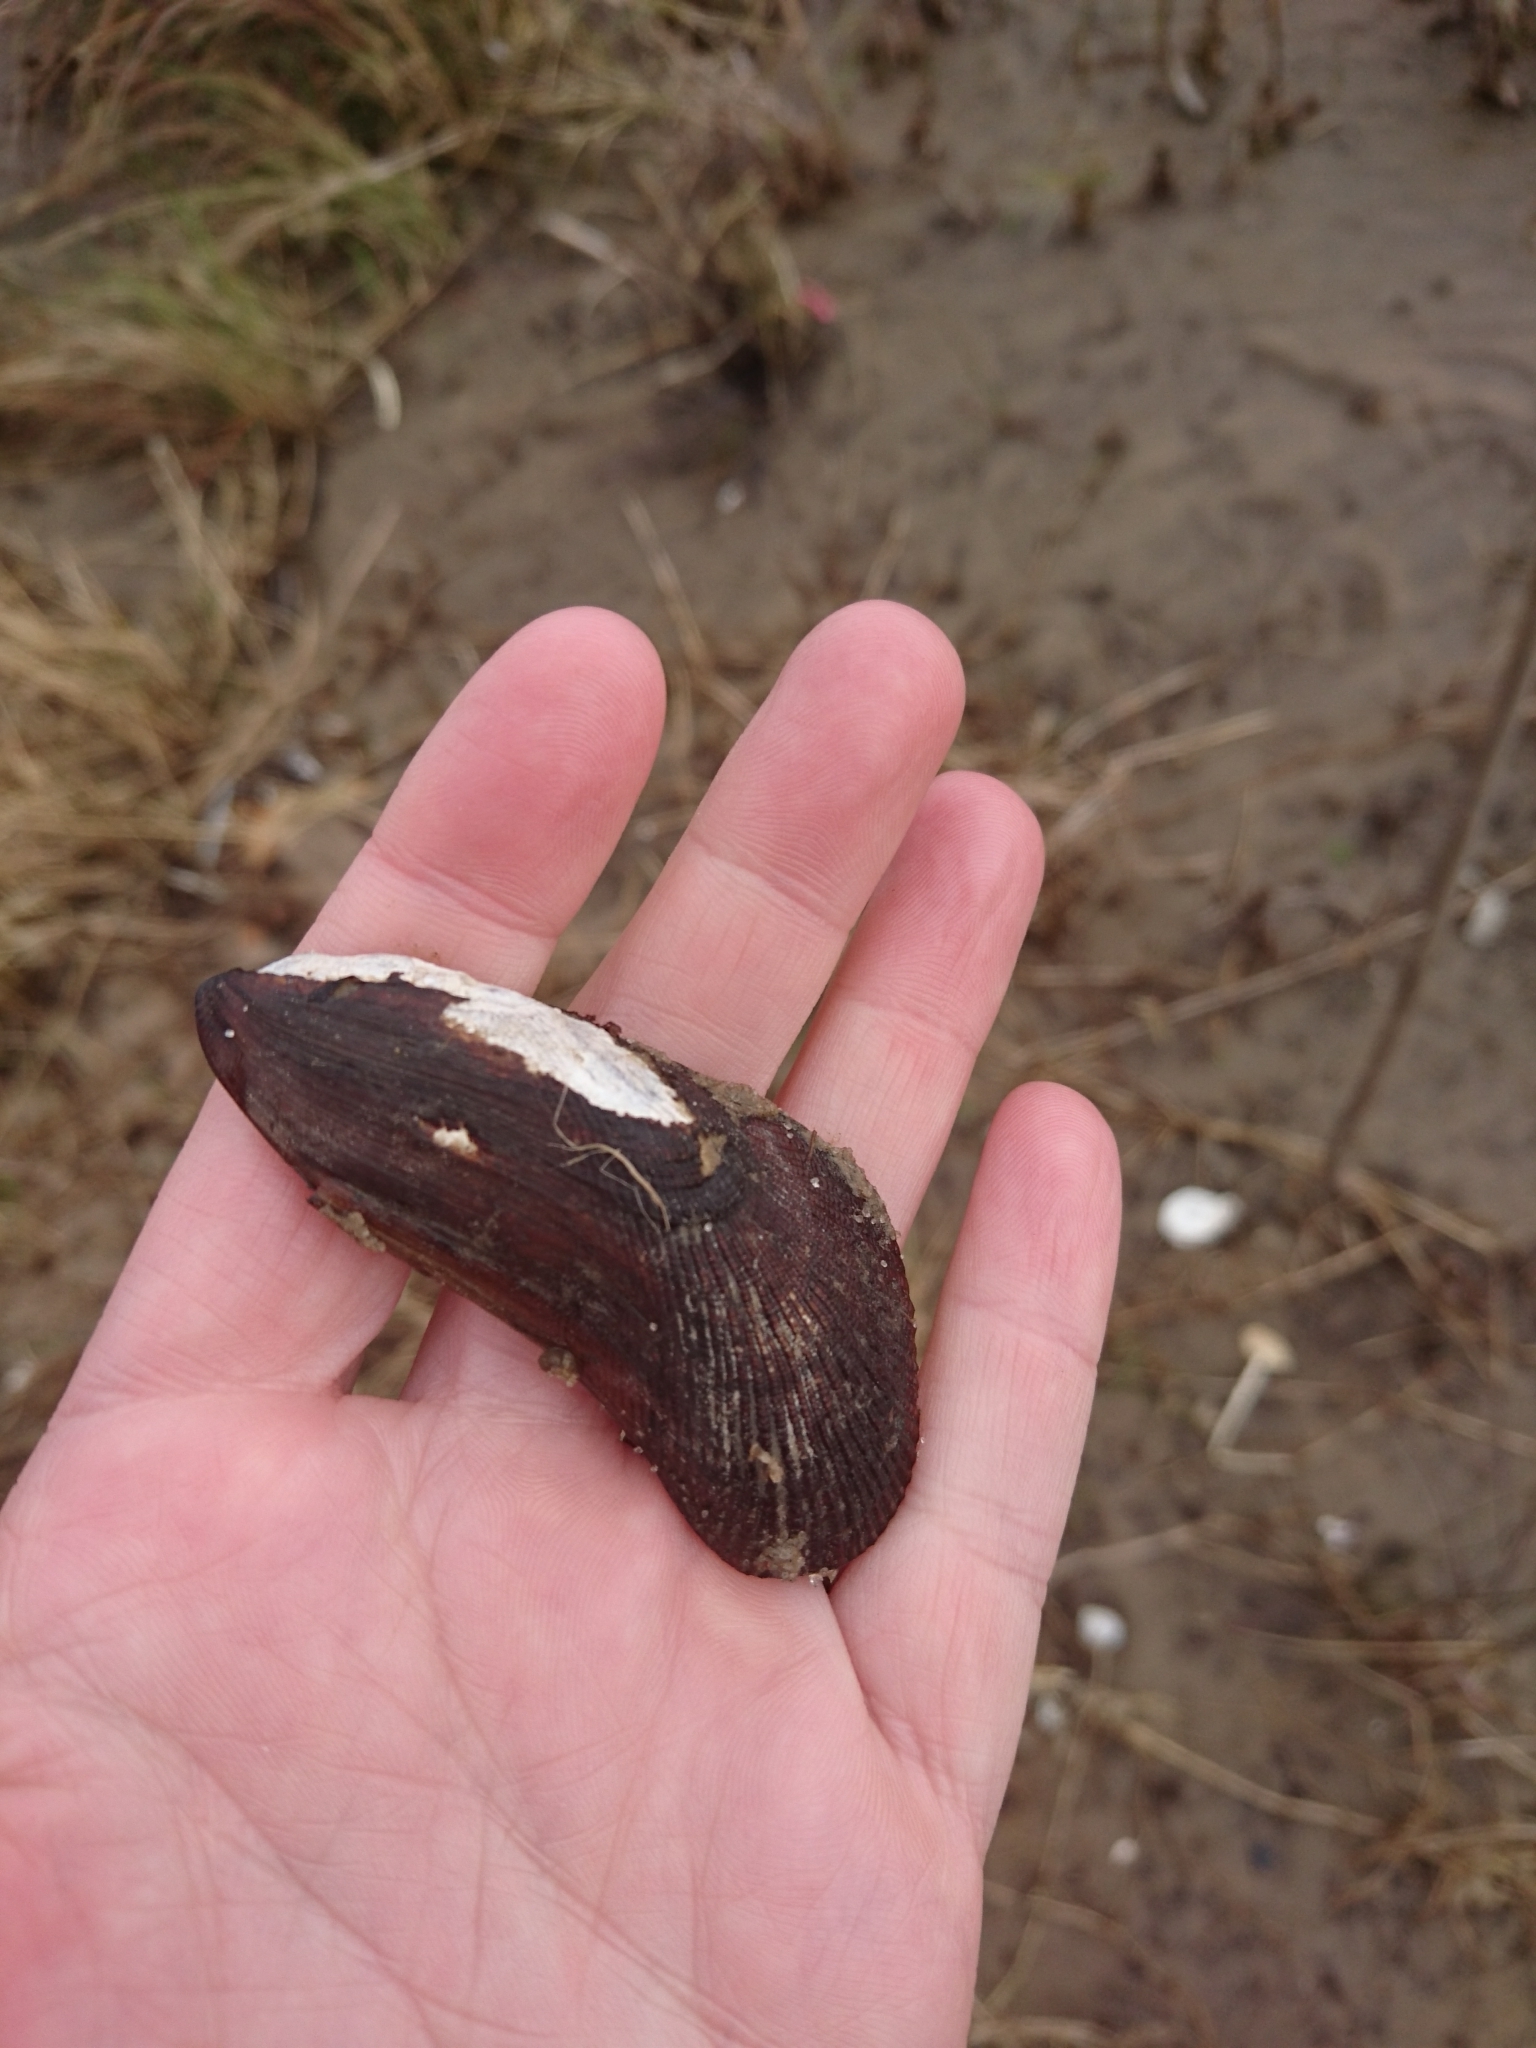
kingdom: Animalia
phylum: Mollusca
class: Bivalvia
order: Mytilida
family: Mytilidae
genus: Geukensia
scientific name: Geukensia granosissima
